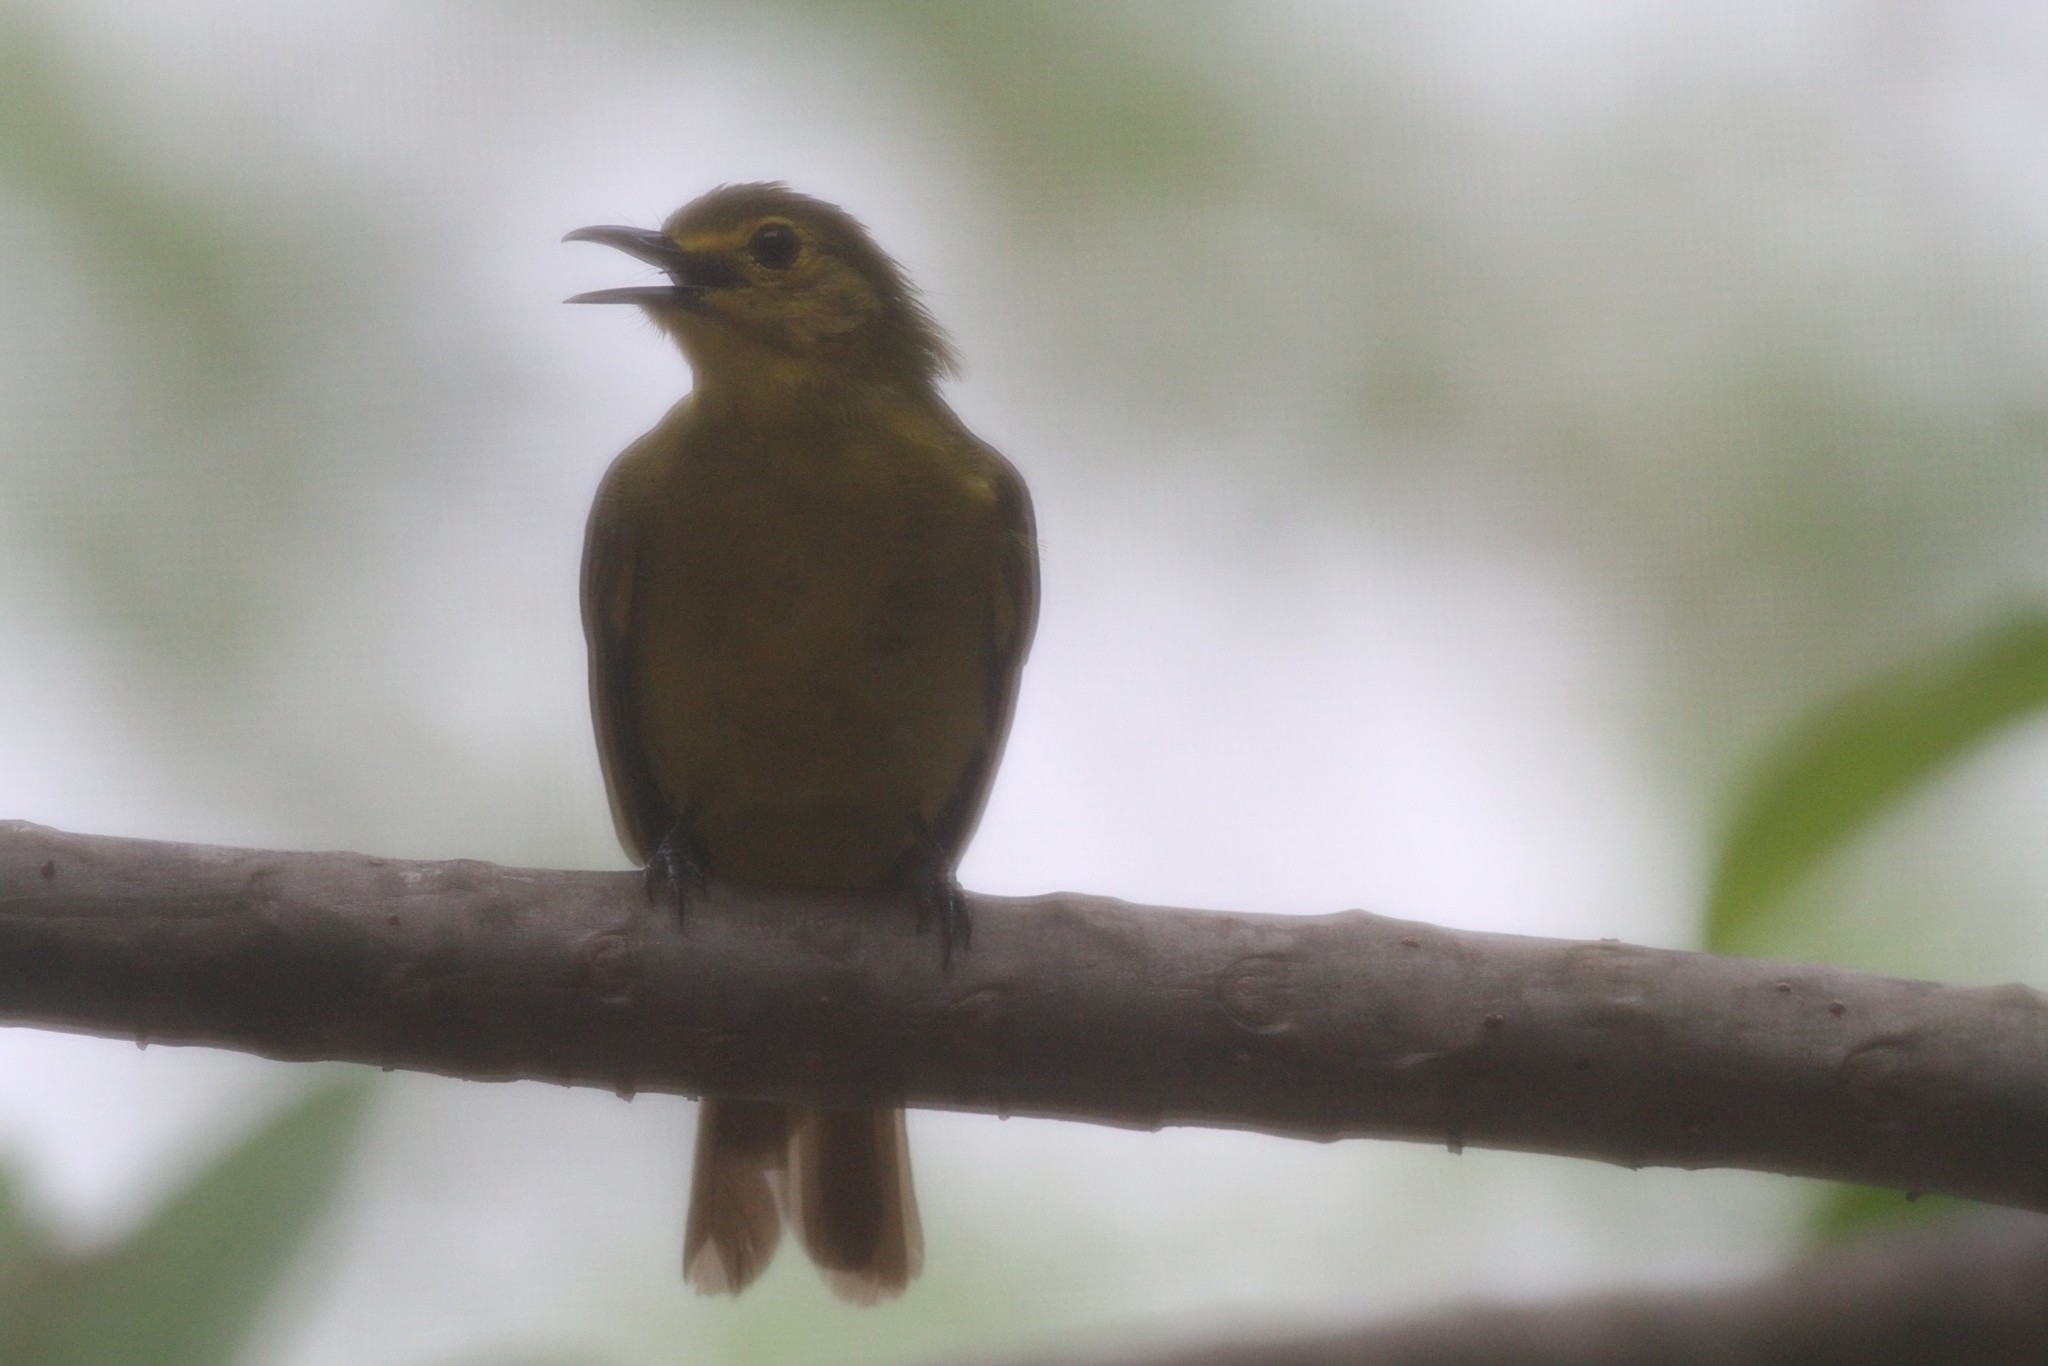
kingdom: Animalia
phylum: Chordata
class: Aves
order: Passeriformes
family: Pycnonotidae
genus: Acritillas
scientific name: Acritillas indica
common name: Yellow-browed bulbul
